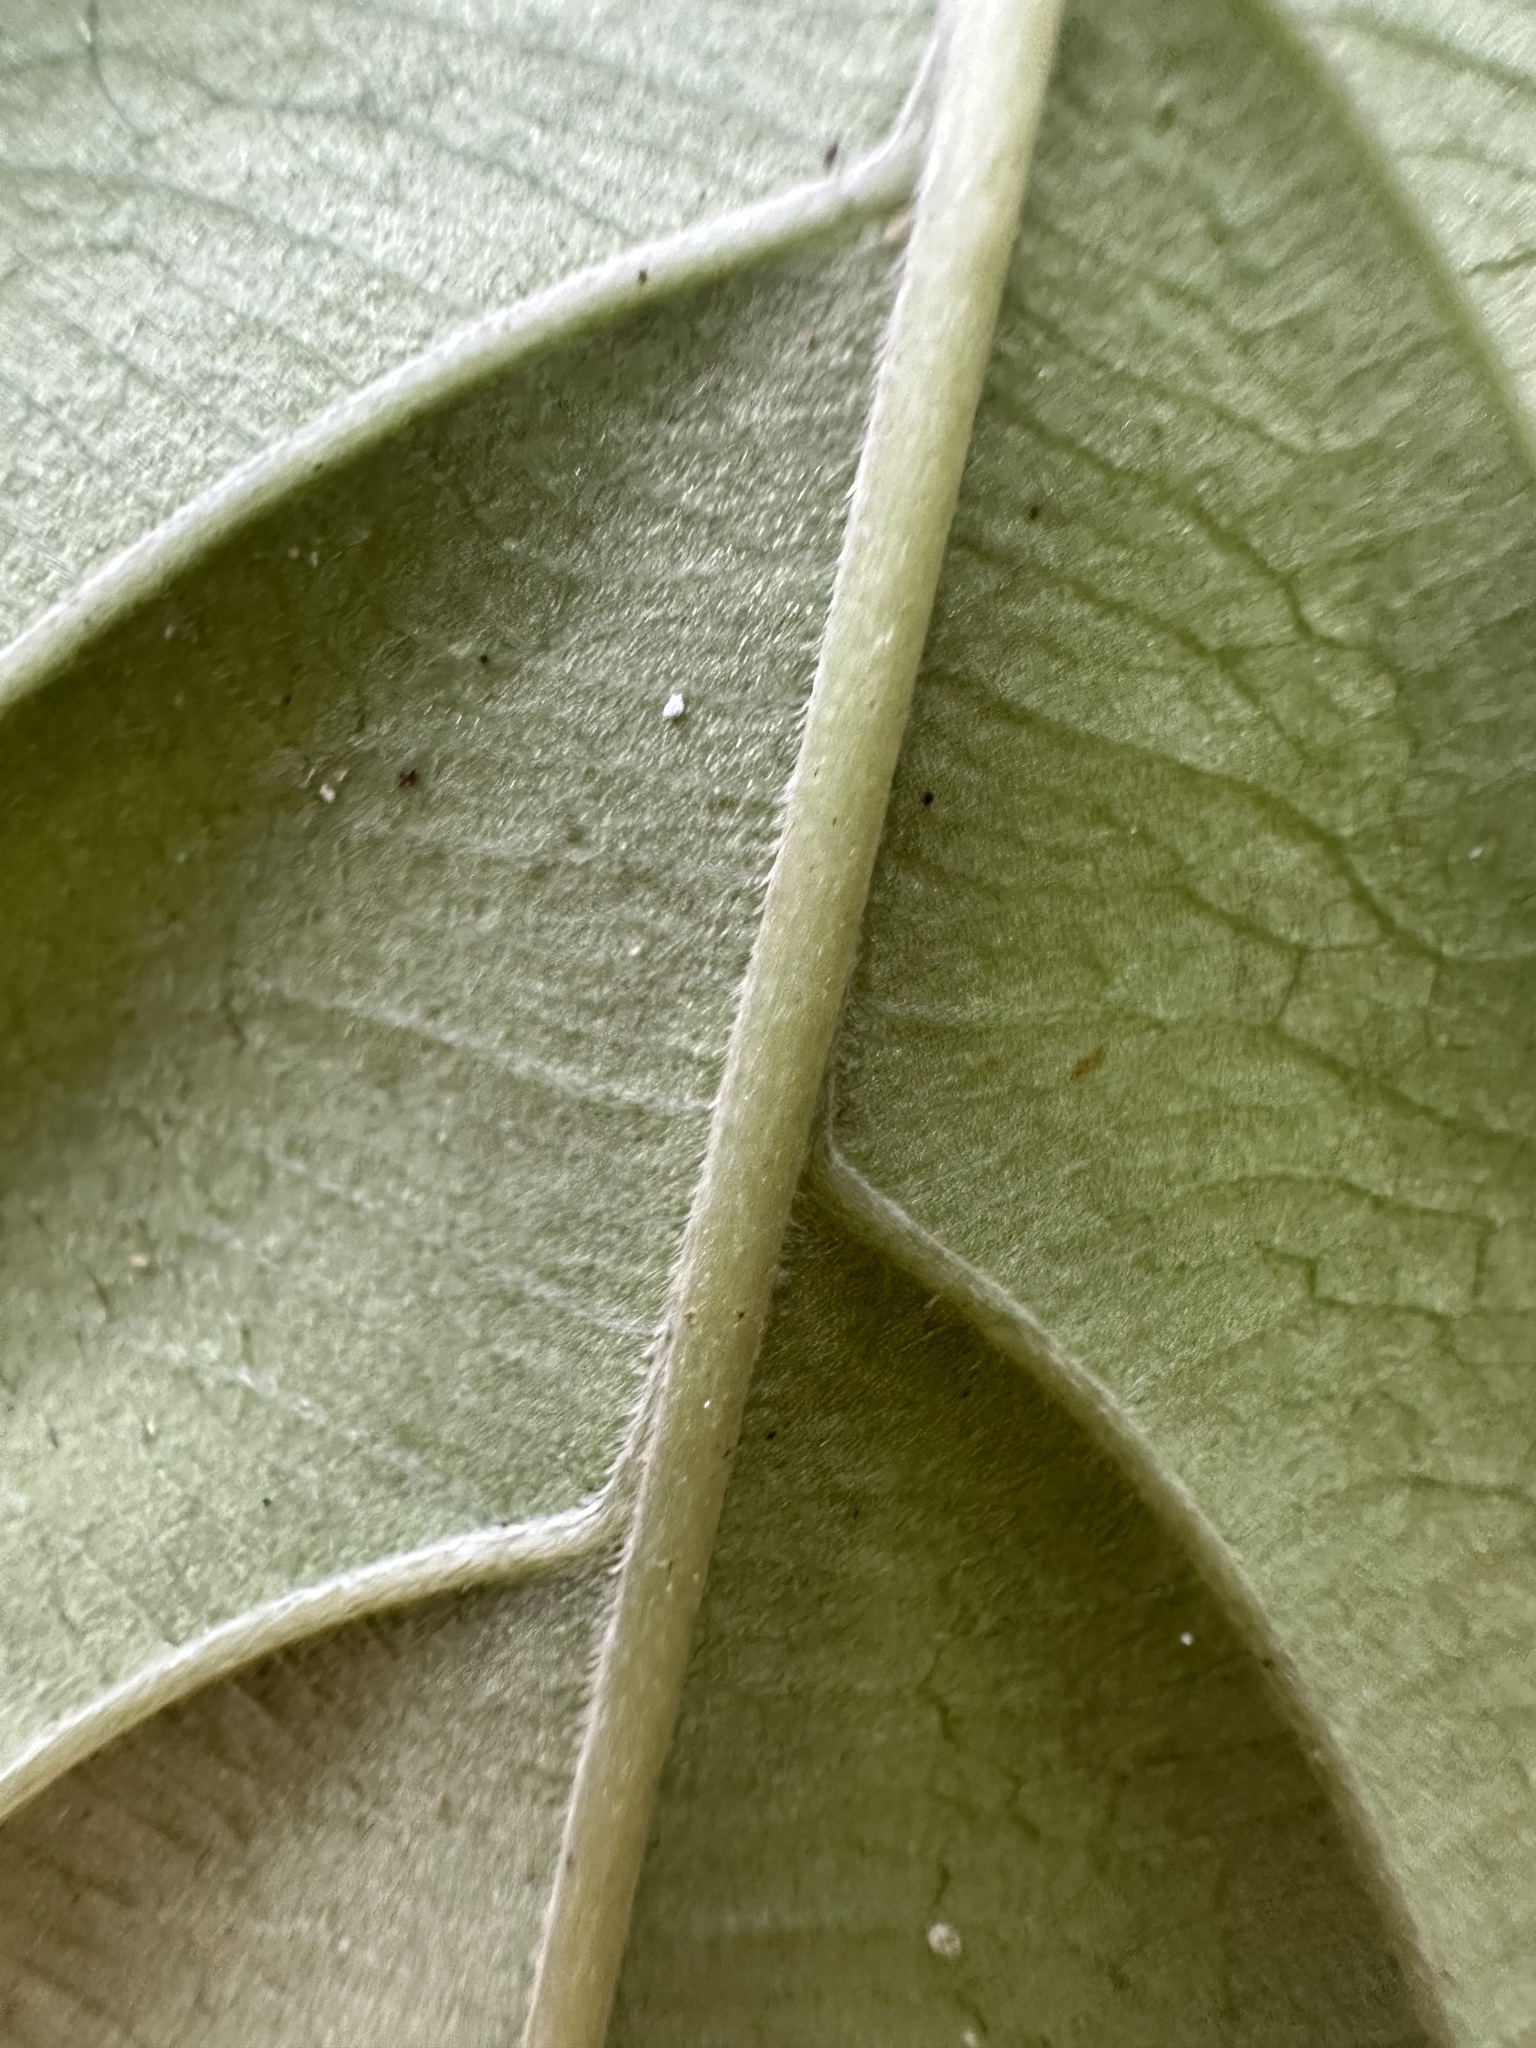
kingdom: Plantae
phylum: Tracheophyta
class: Magnoliopsida
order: Gentianales
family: Rubiaceae
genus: Urophyllum
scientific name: Urophyllum streptopodium
